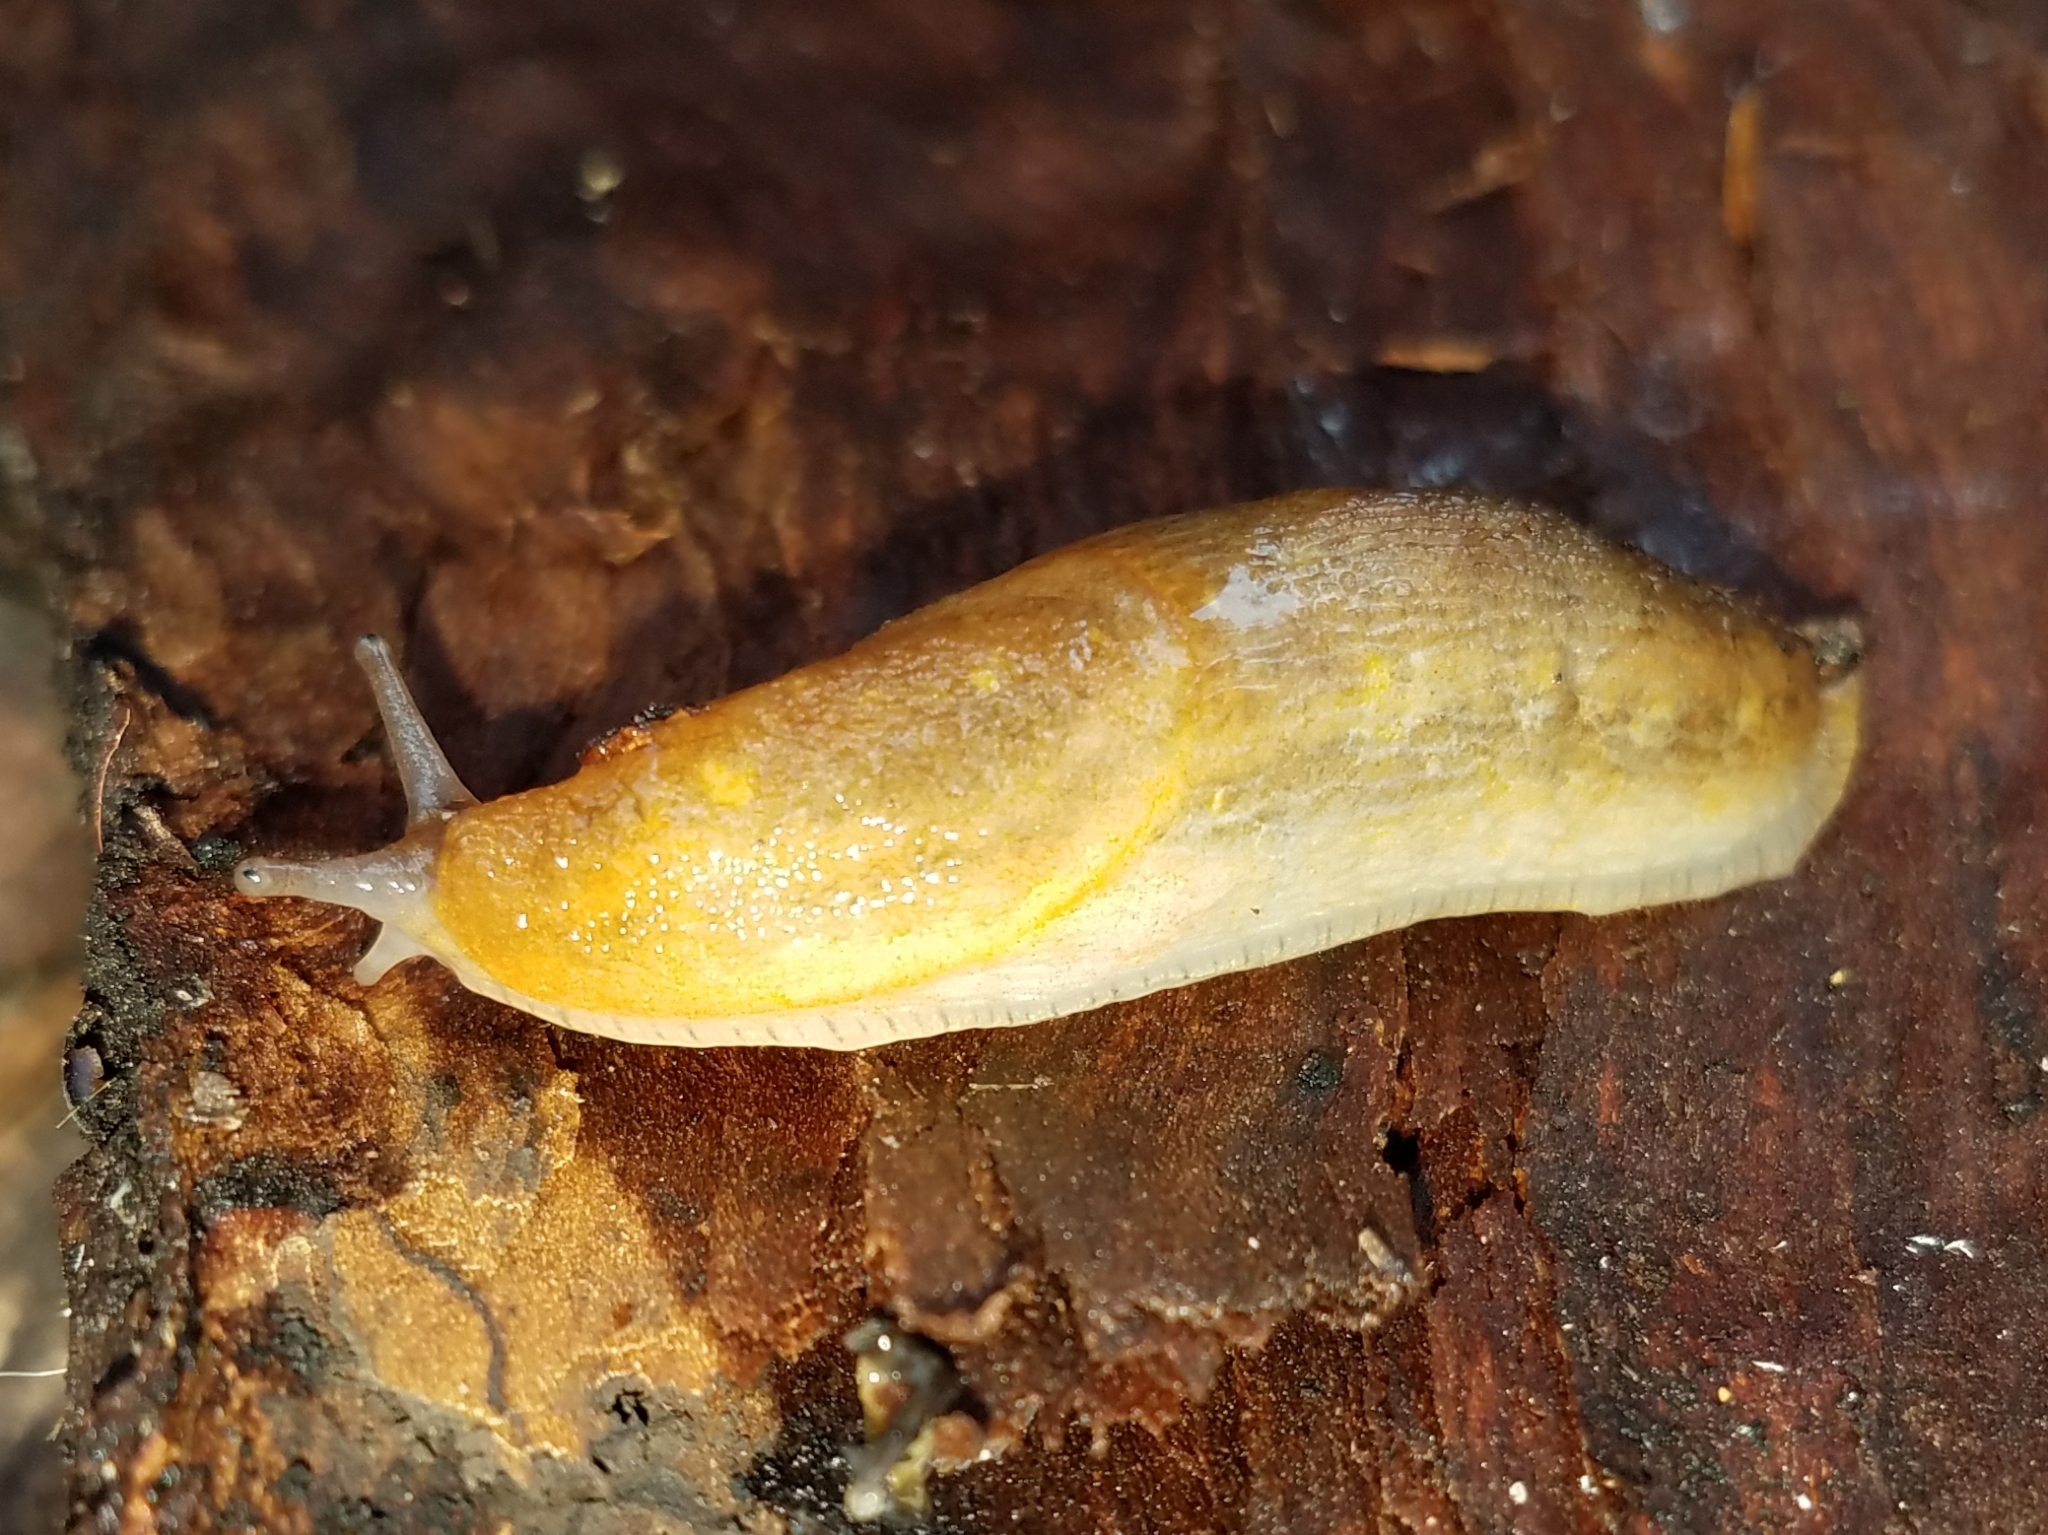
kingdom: Animalia
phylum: Mollusca
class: Gastropoda
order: Stylommatophora
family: Arionidae
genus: Arion
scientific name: Arion subfuscus
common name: Dusky arion
